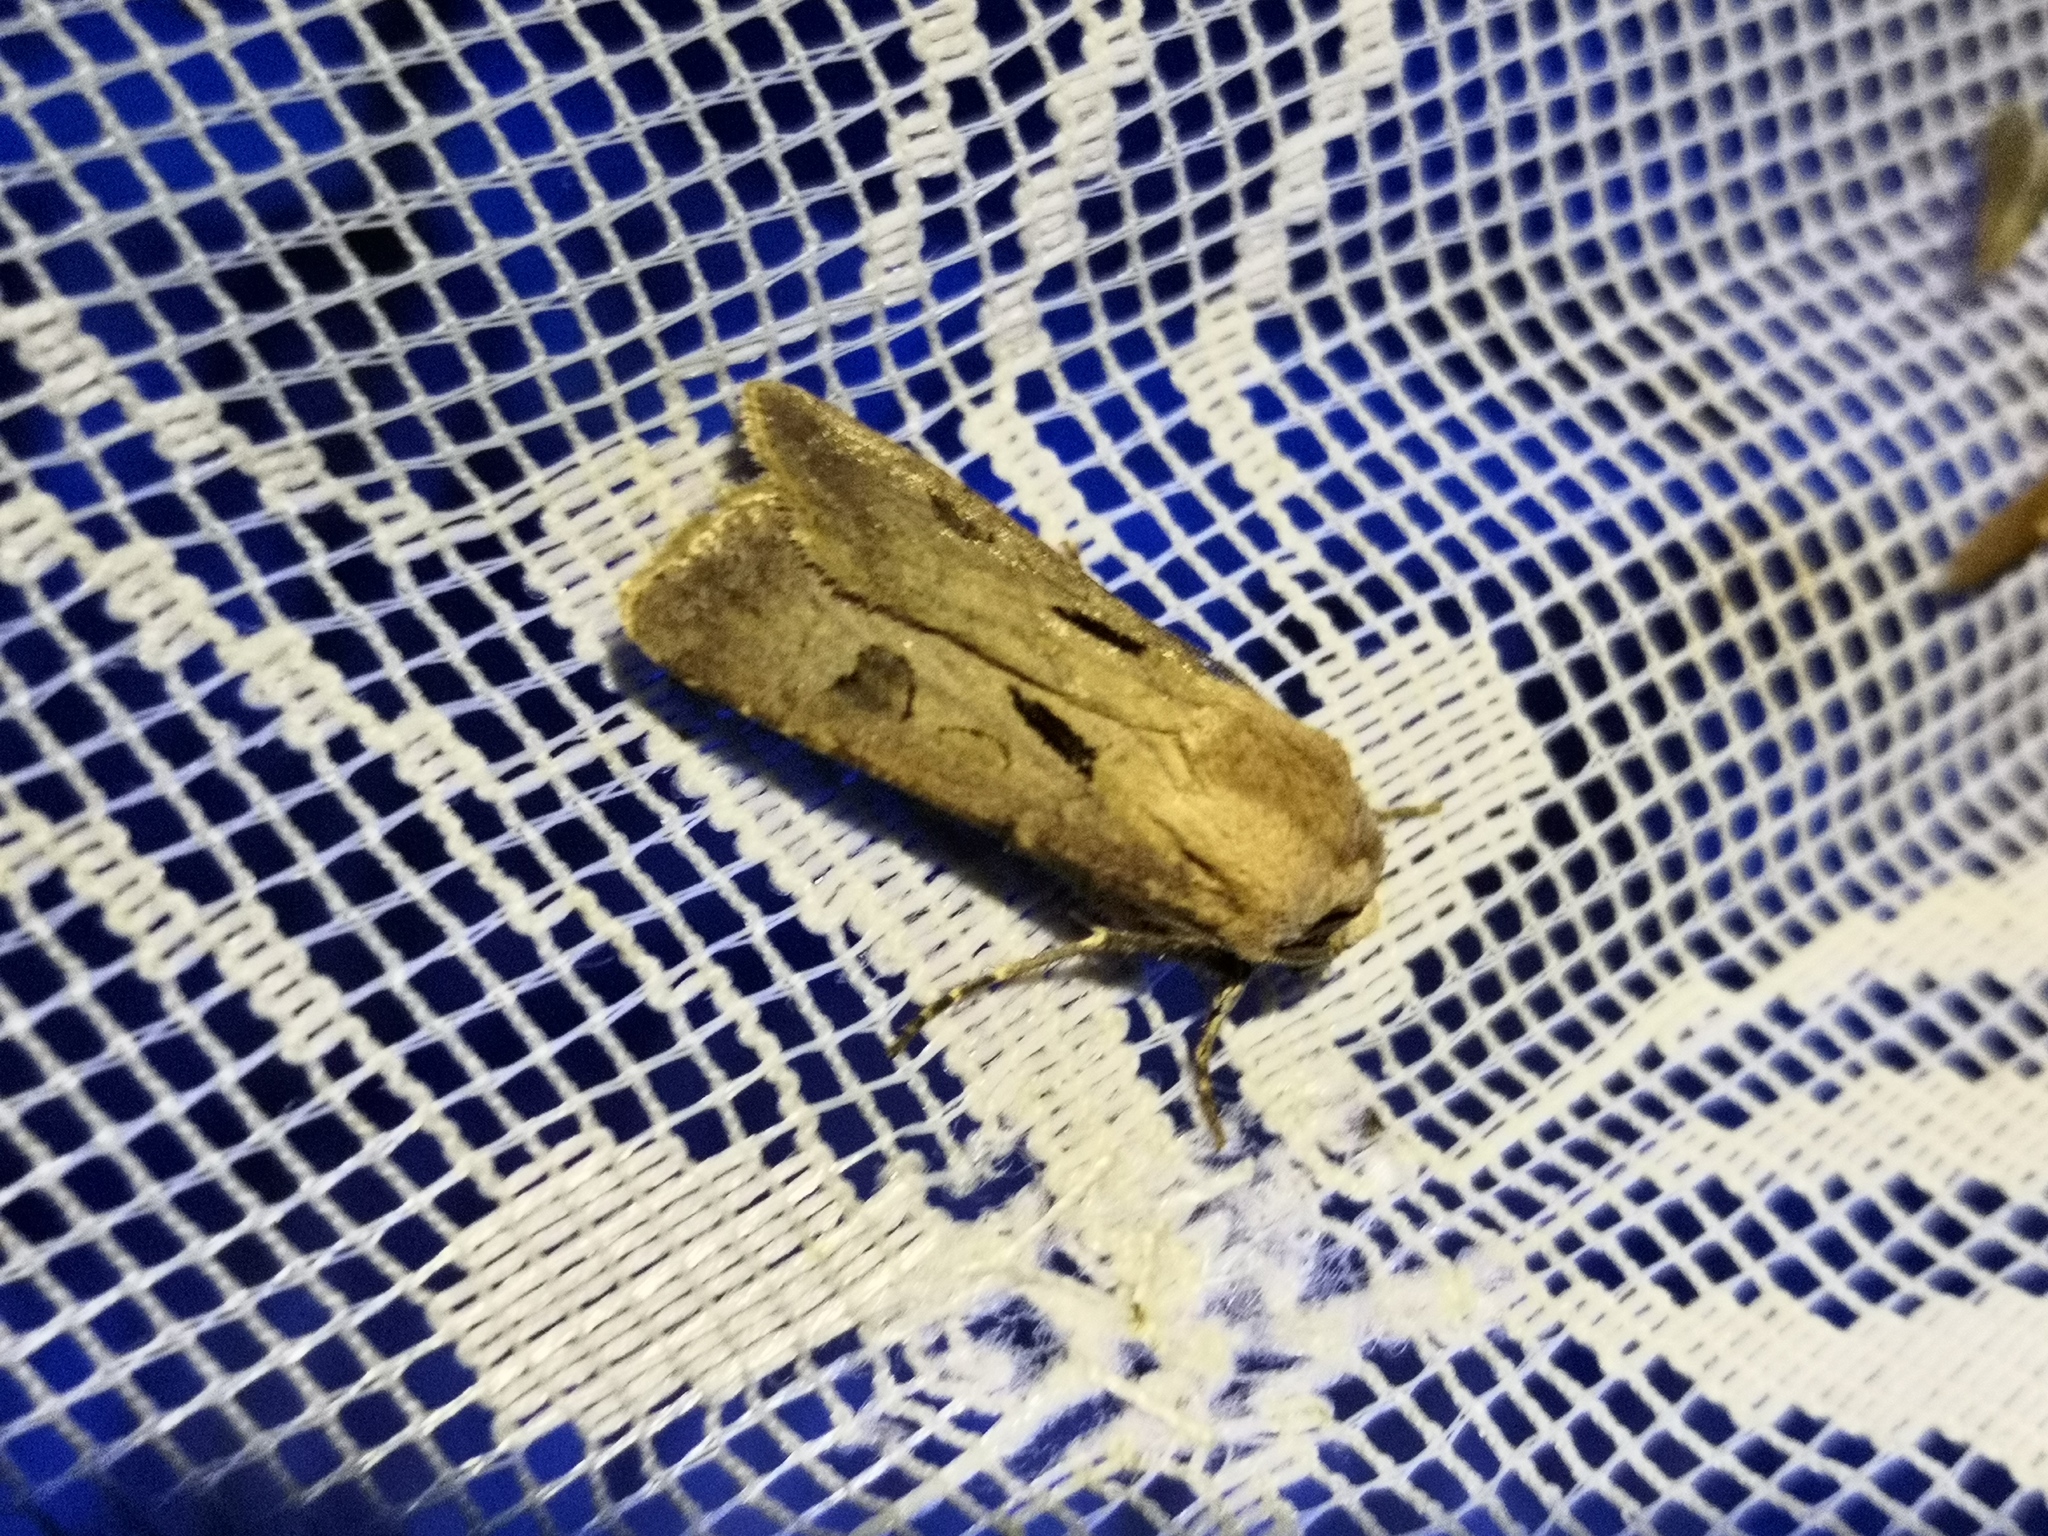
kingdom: Animalia
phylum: Arthropoda
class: Insecta
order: Lepidoptera
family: Noctuidae
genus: Agrotis
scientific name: Agrotis exclamationis
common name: Heart and dart
